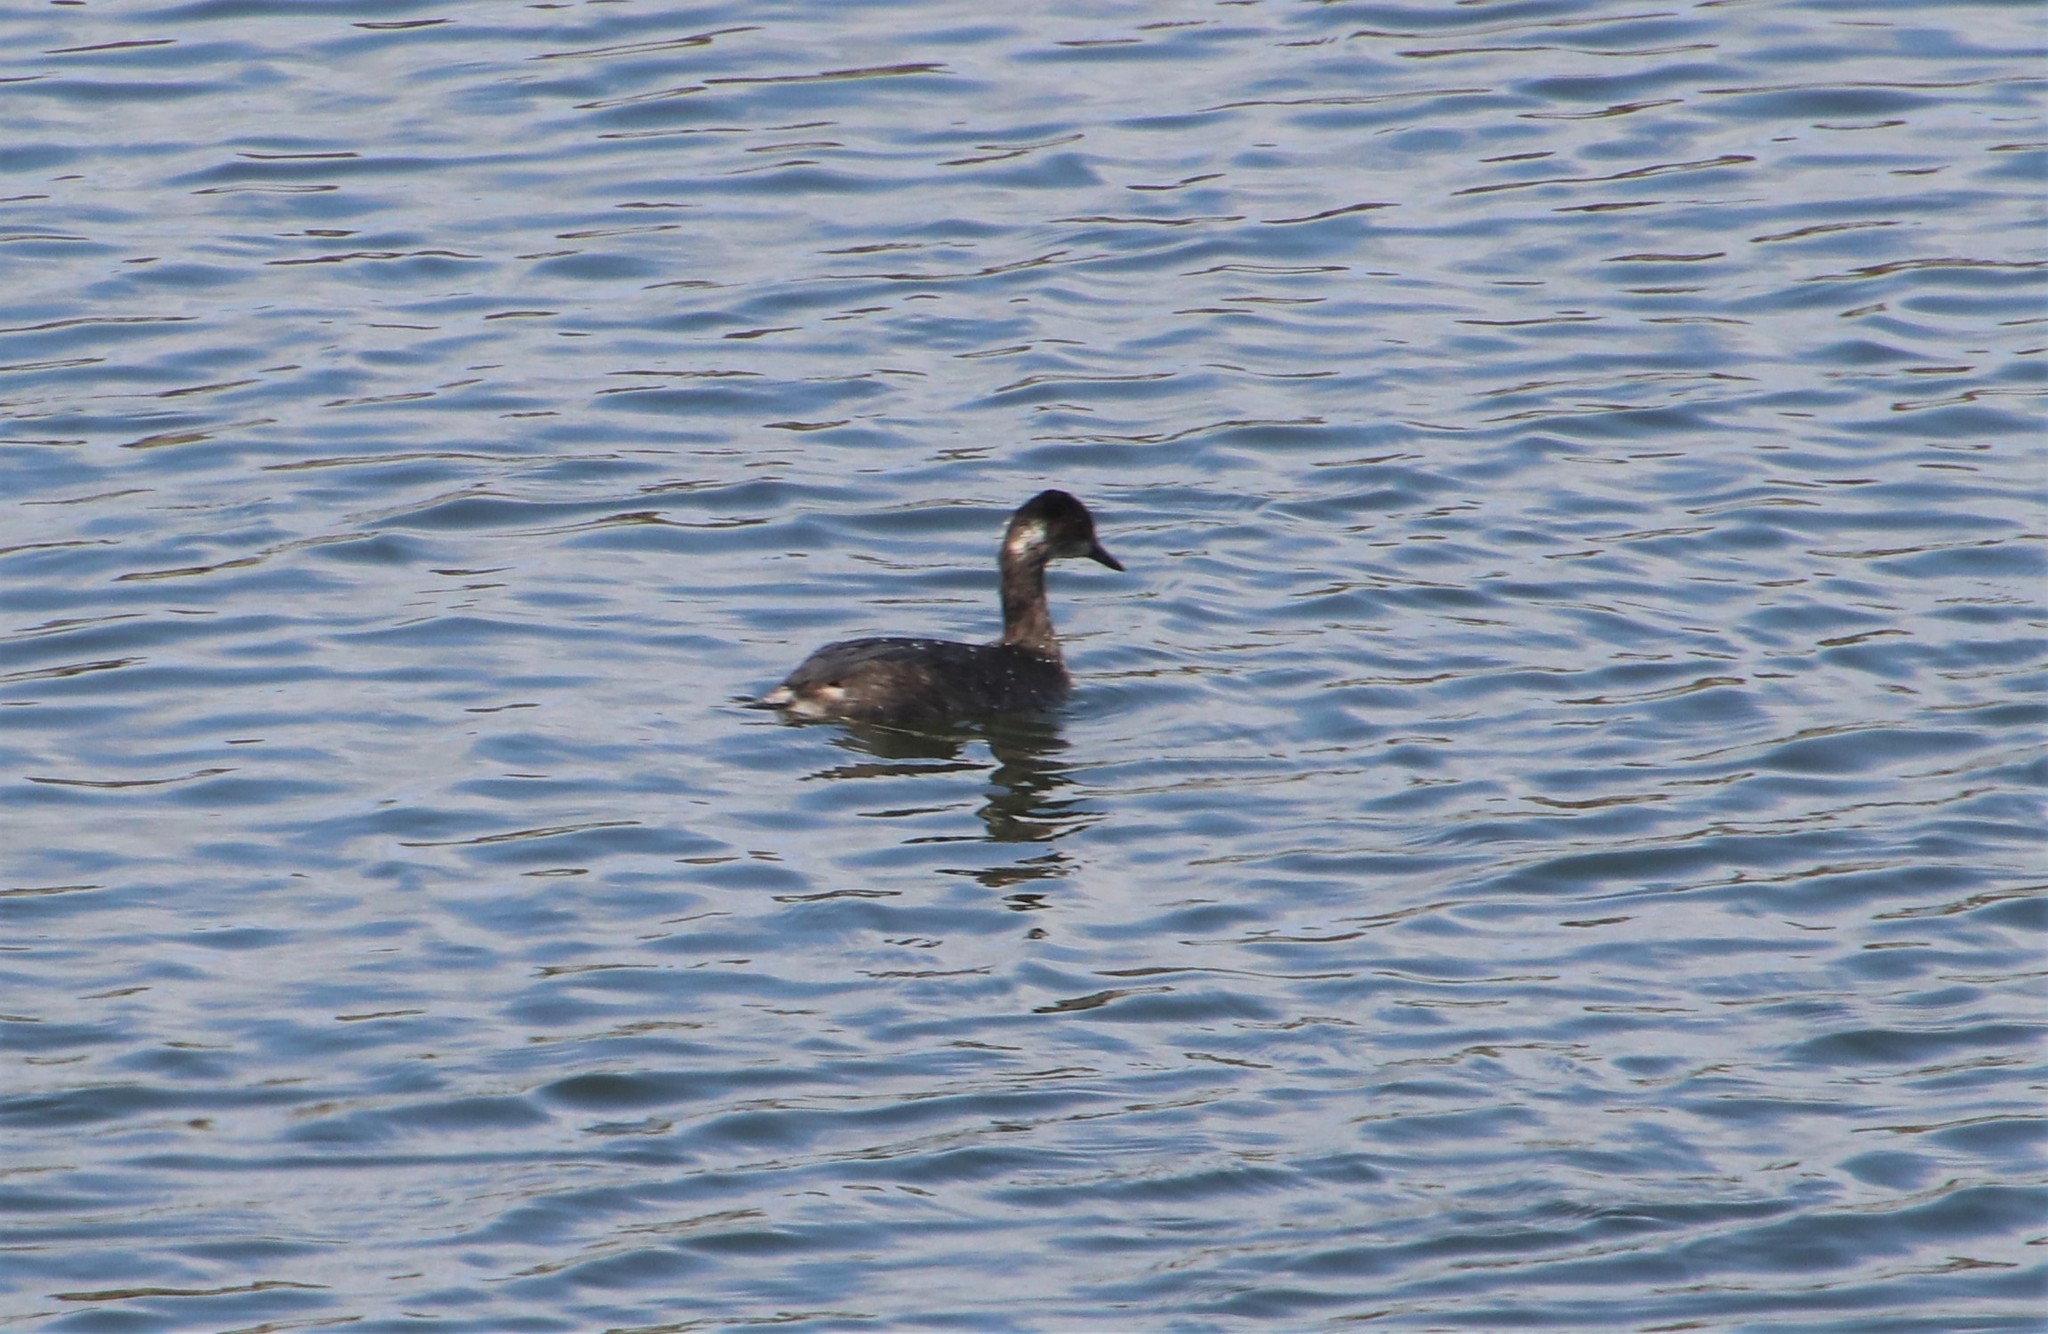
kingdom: Animalia
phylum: Chordata
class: Aves
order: Podicipediformes
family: Podicipedidae
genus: Podiceps
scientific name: Podiceps nigricollis
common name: Black-necked grebe
